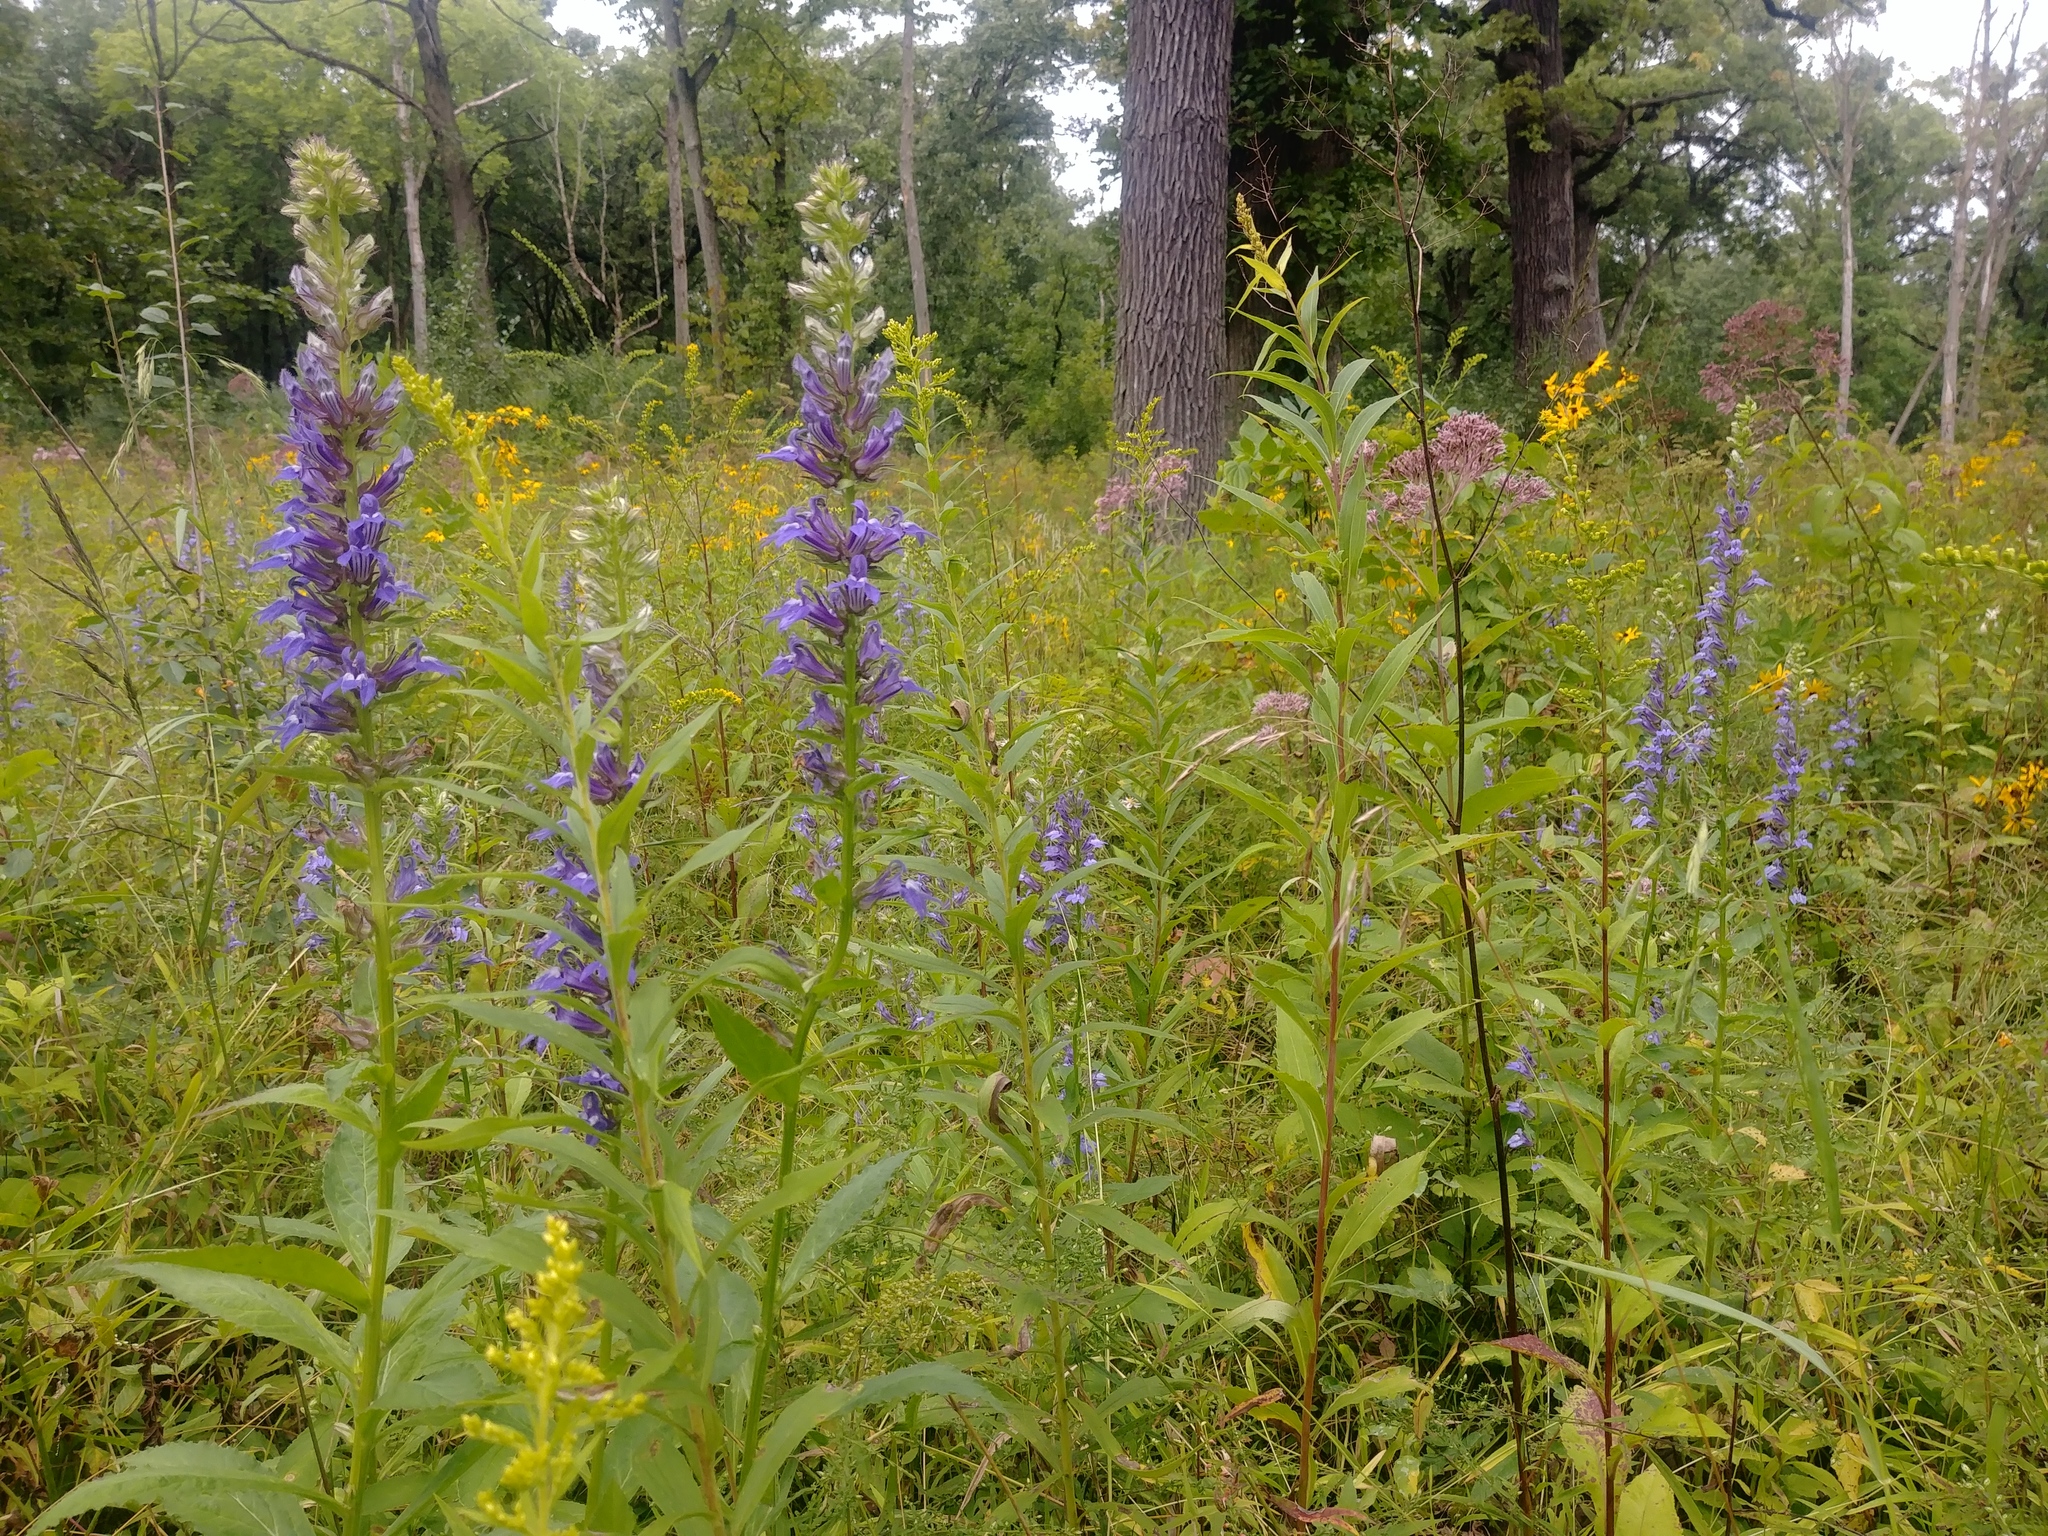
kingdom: Plantae
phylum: Tracheophyta
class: Magnoliopsida
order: Asterales
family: Campanulaceae
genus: Lobelia
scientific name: Lobelia siphilitica
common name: Great lobelia
